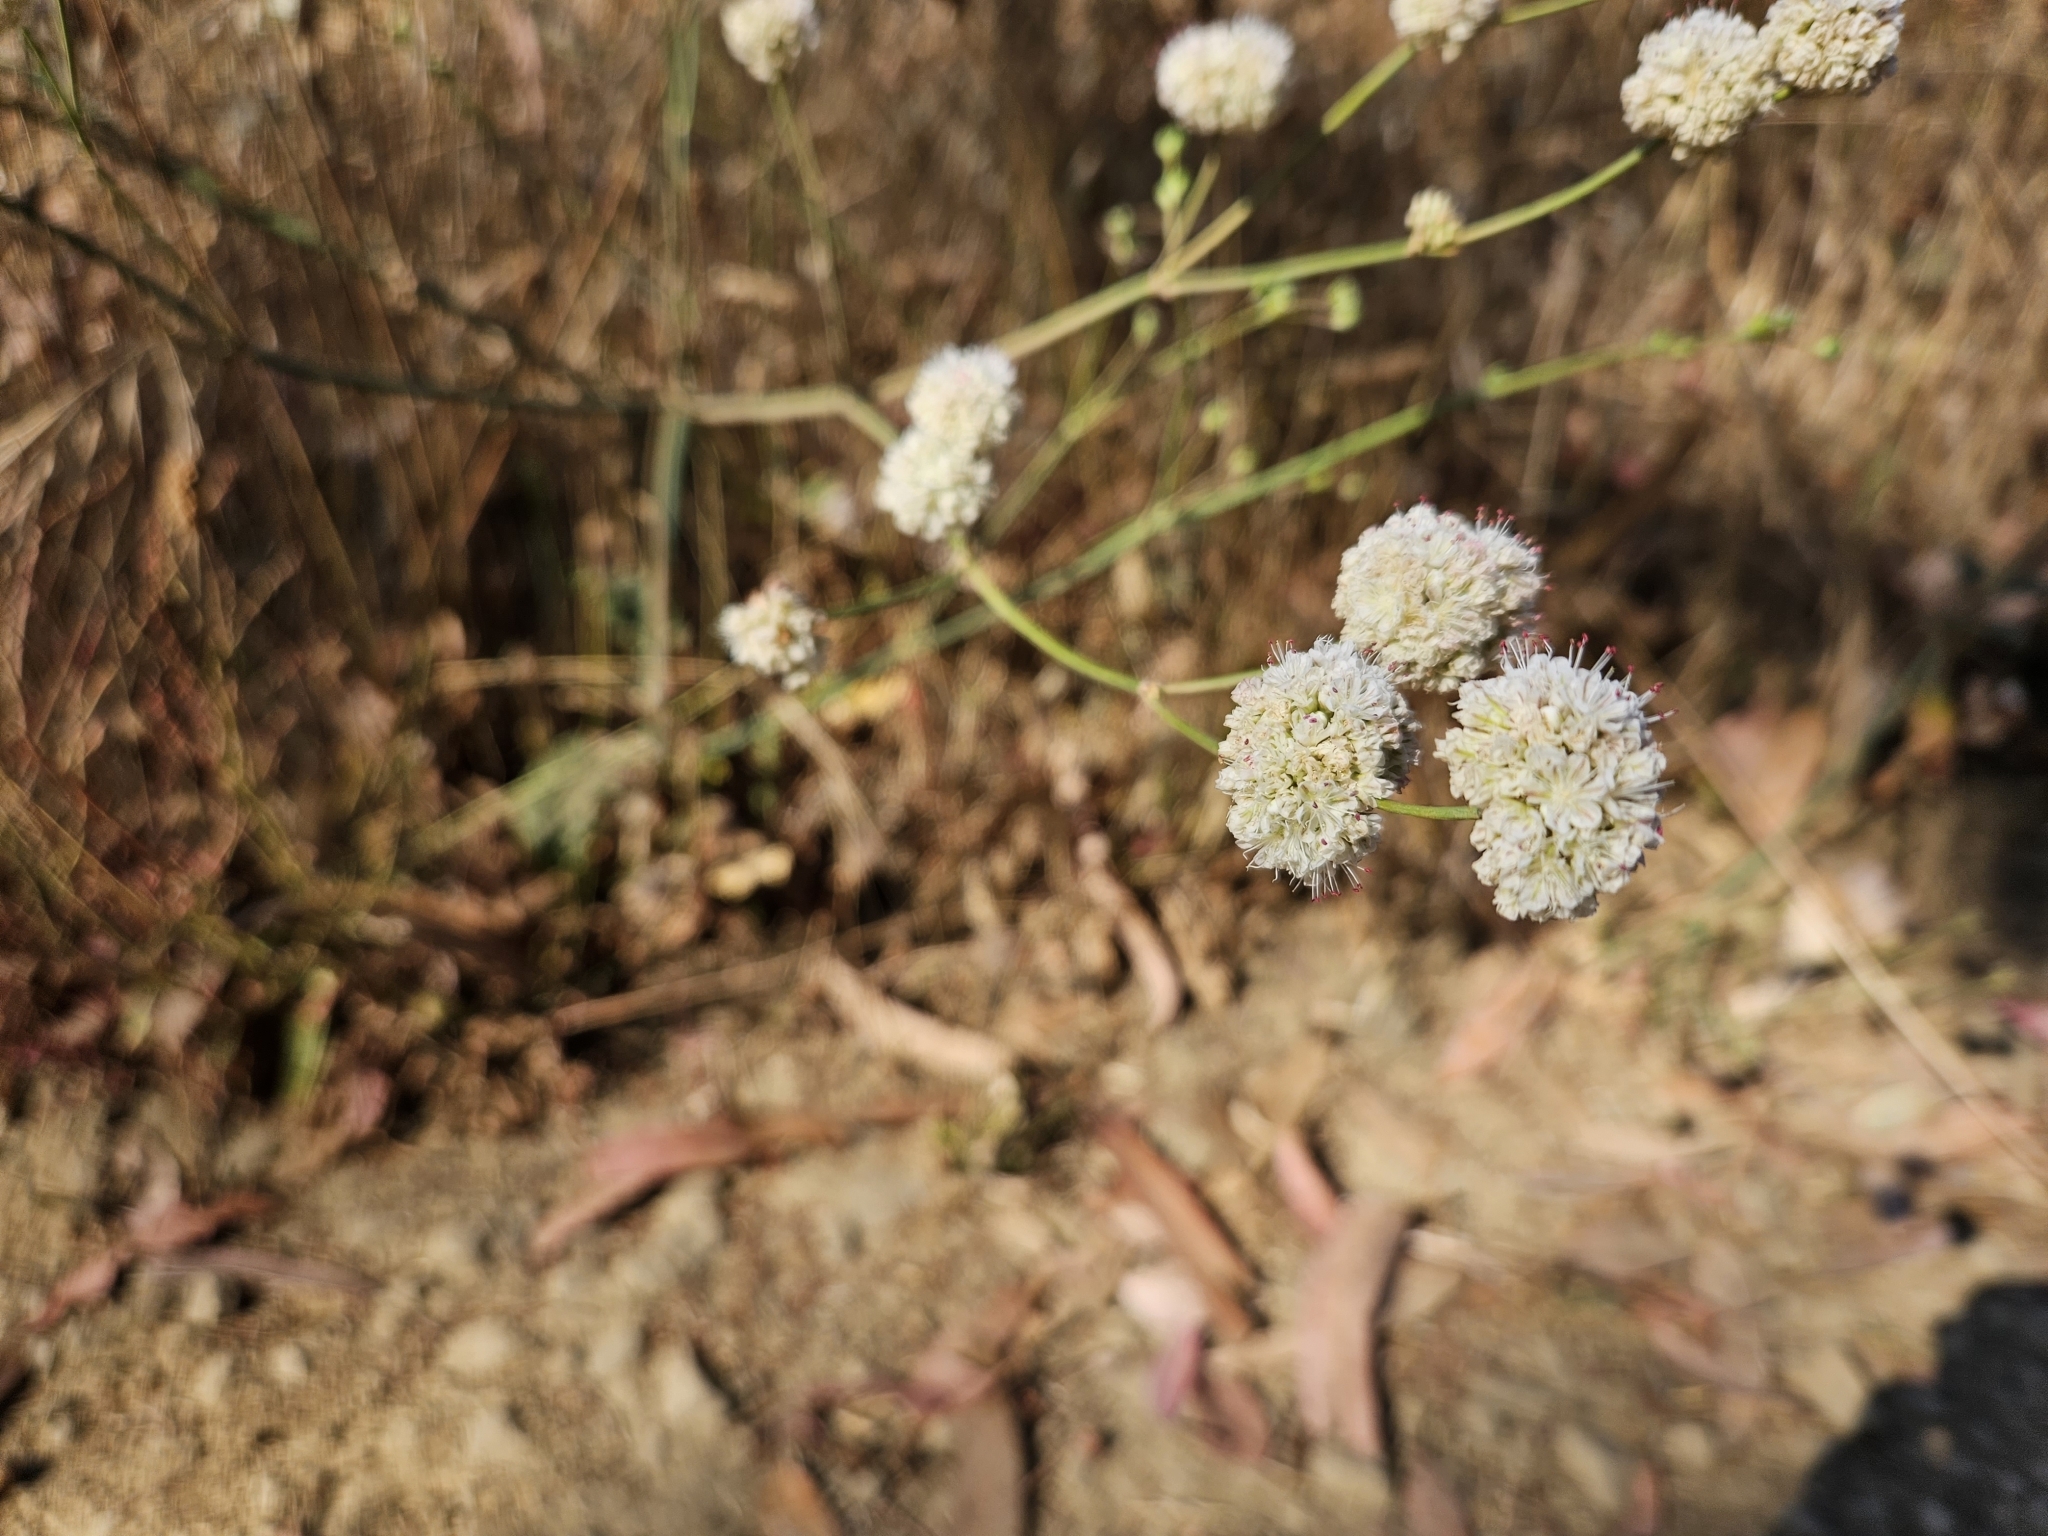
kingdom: Plantae
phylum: Tracheophyta
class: Magnoliopsida
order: Caryophyllales
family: Polygonaceae
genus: Eriogonum
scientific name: Eriogonum nudum
